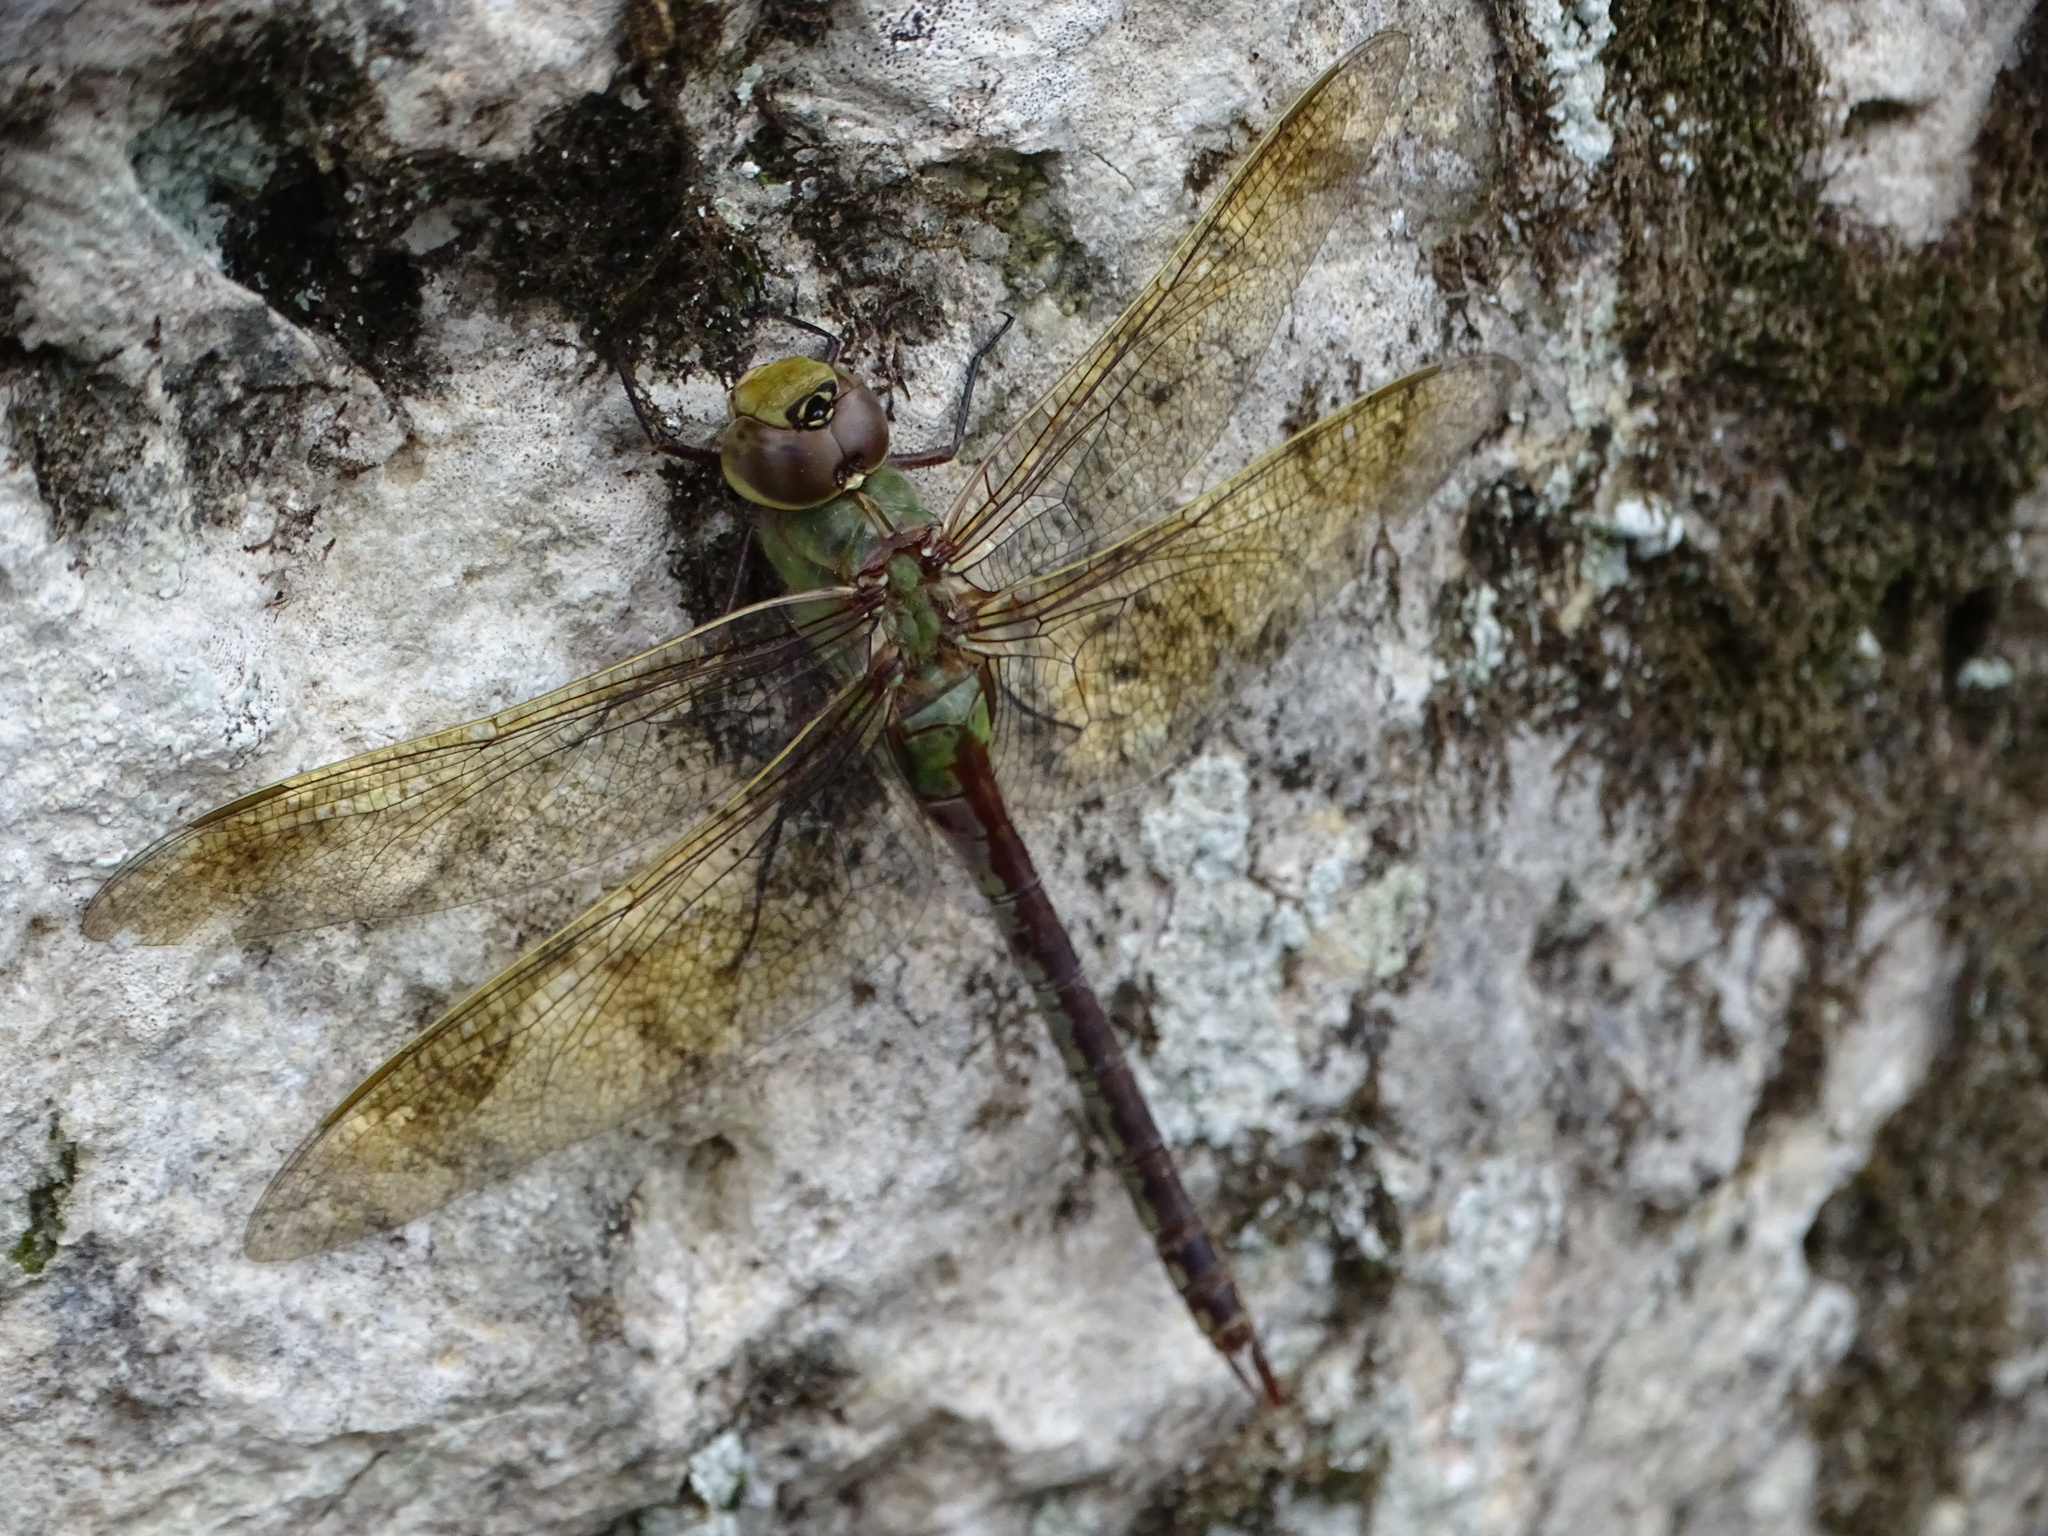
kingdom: Animalia
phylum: Arthropoda
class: Insecta
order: Odonata
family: Aeshnidae
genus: Anax
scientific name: Anax junius
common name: Common green darner
